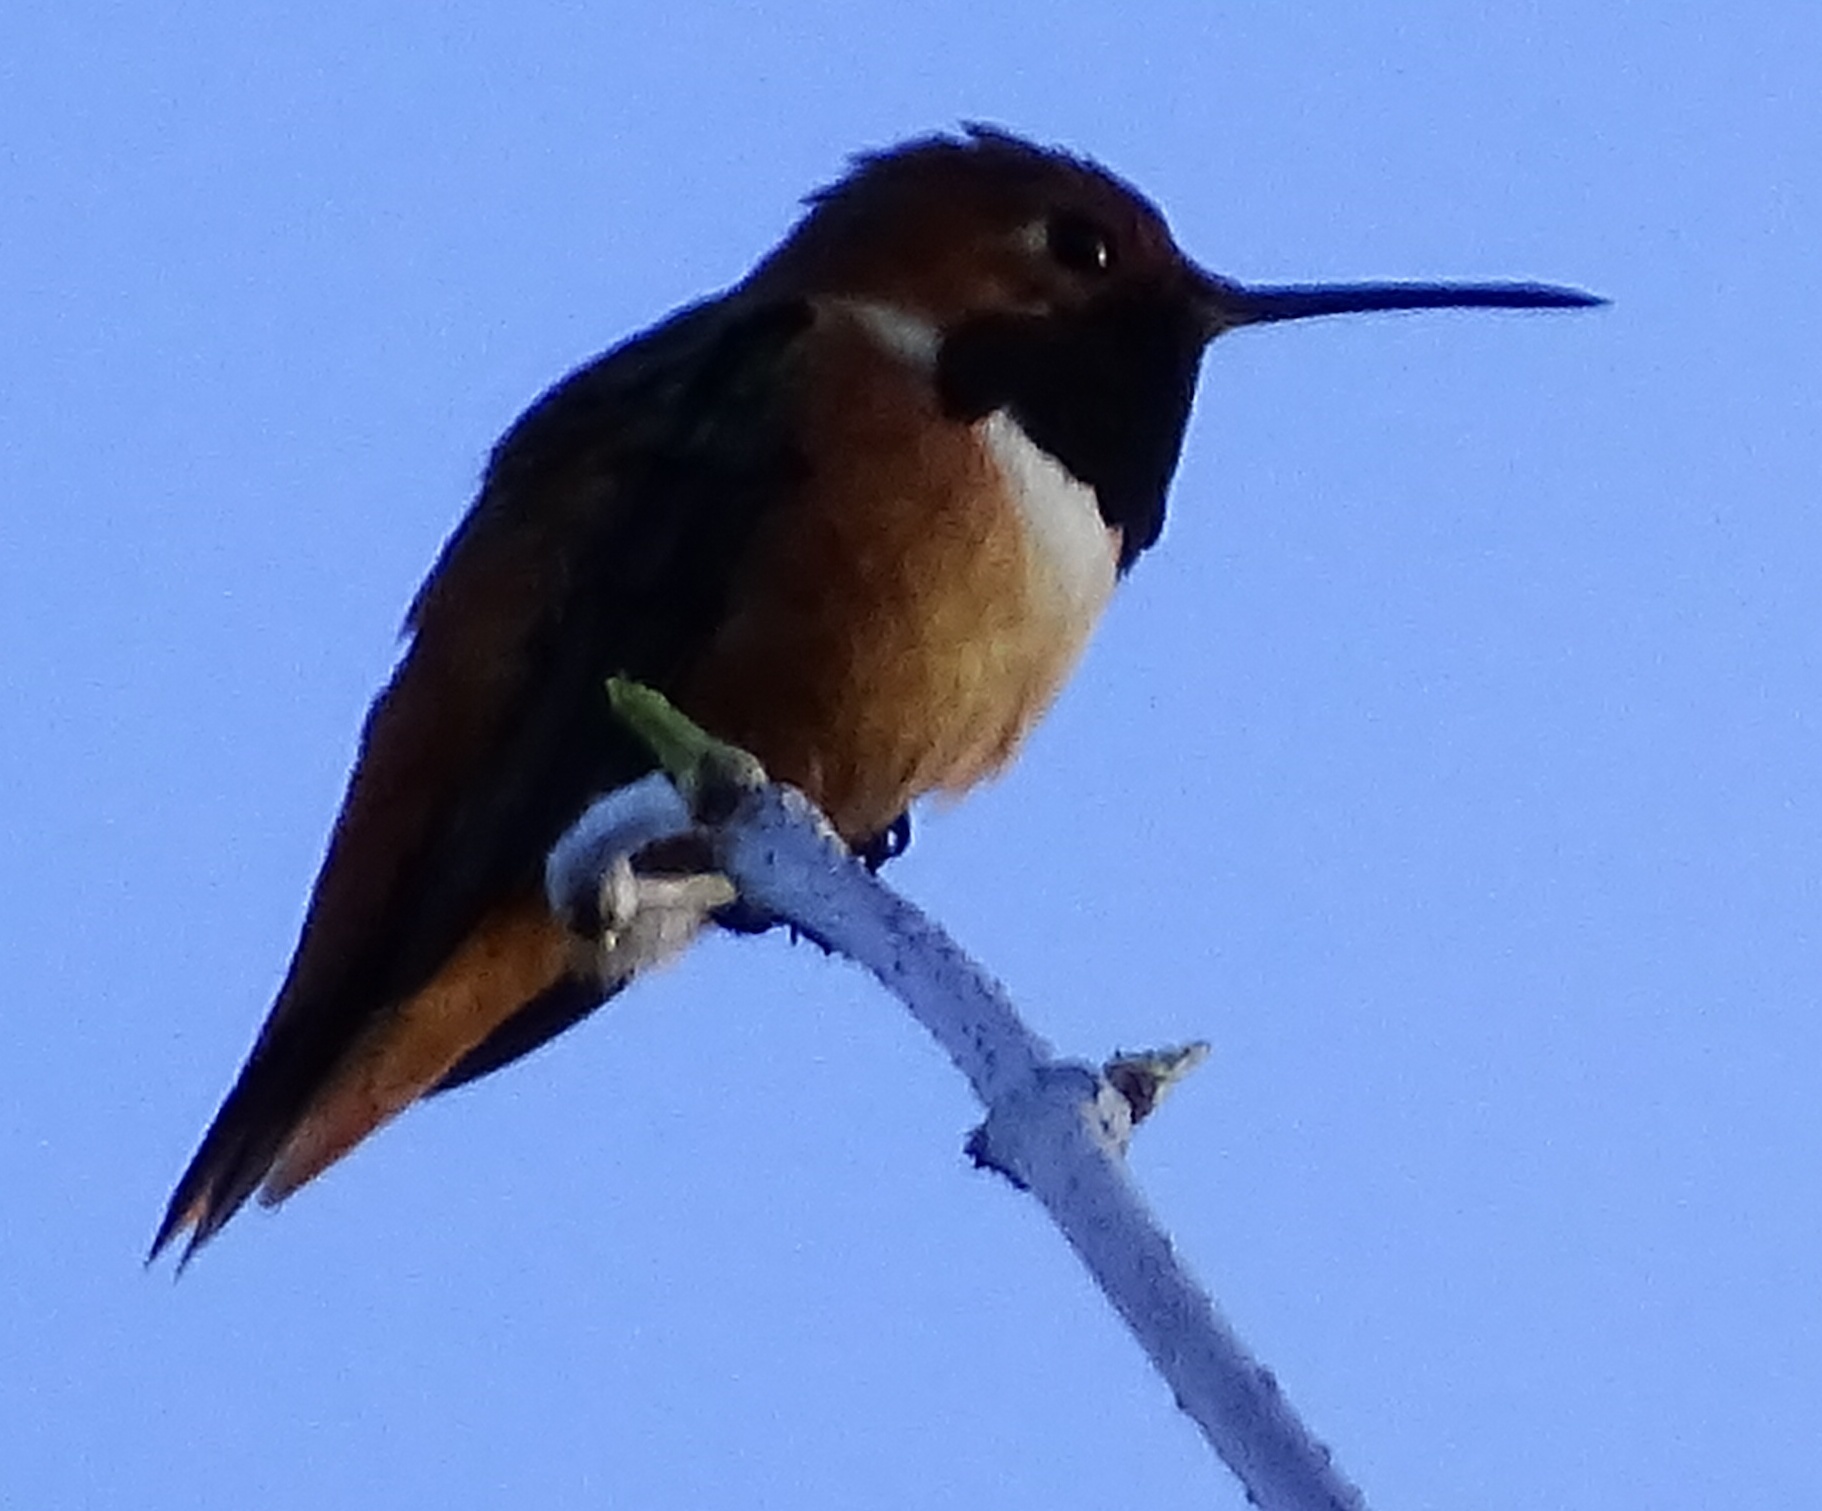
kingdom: Animalia
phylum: Chordata
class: Aves
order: Apodiformes
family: Trochilidae
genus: Selasphorus
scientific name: Selasphorus sasin
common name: Allen's hummingbird
